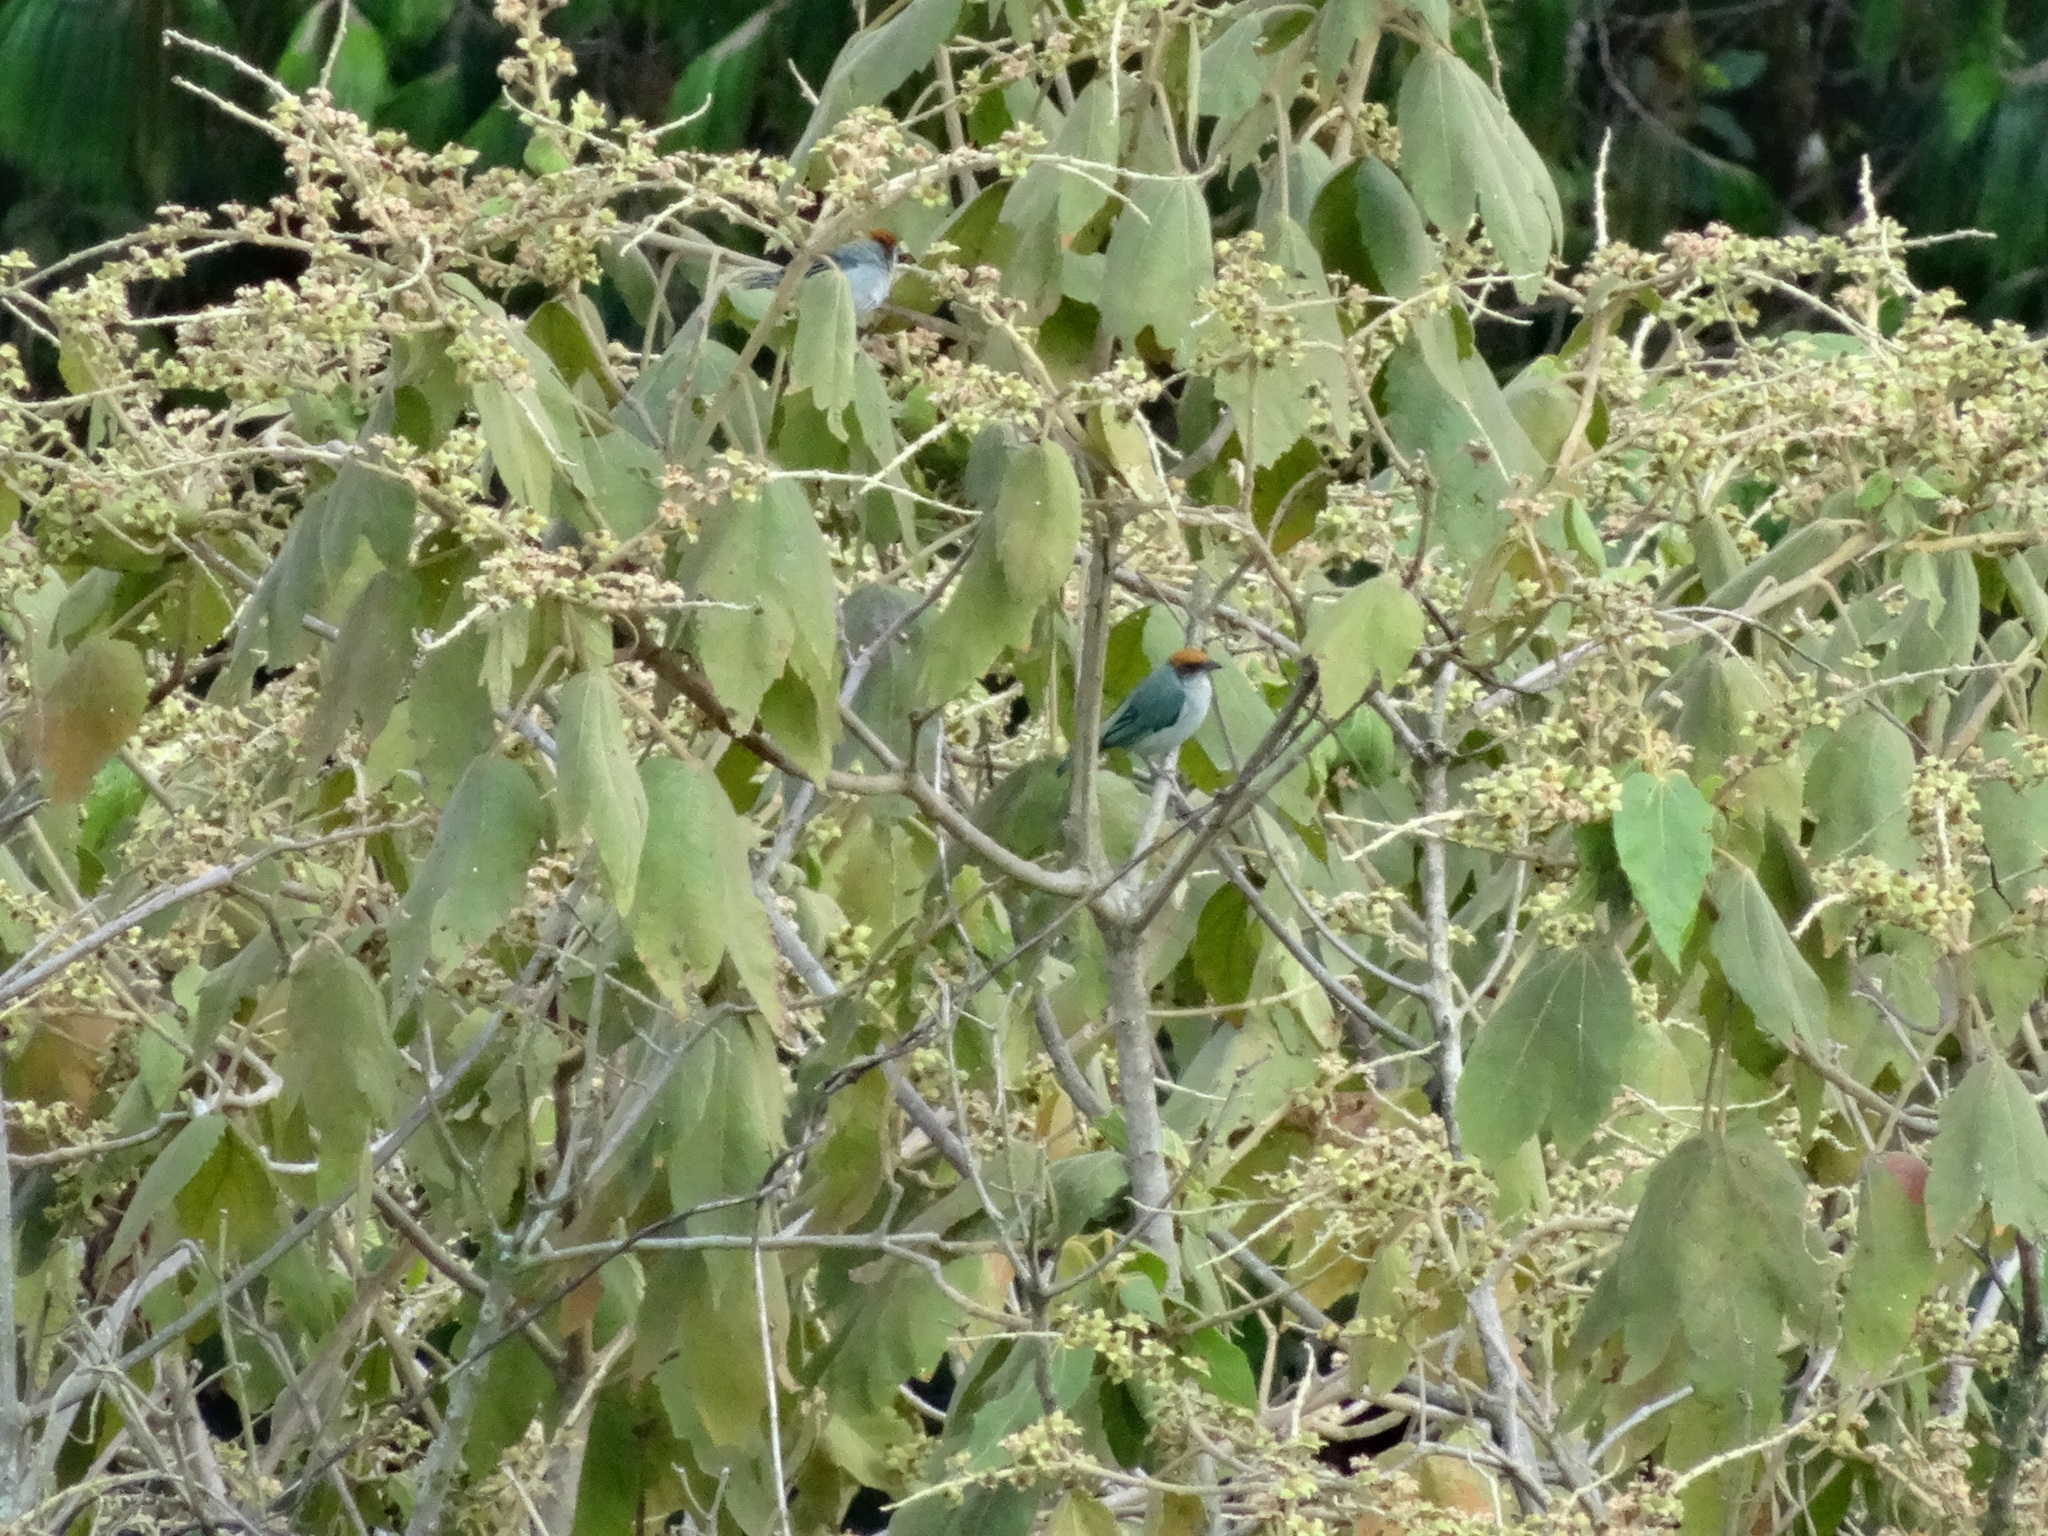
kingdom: Animalia
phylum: Chordata
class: Aves
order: Passeriformes
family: Thraupidae
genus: Stilpnia
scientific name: Stilpnia vitriolina
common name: Scrub tanager
